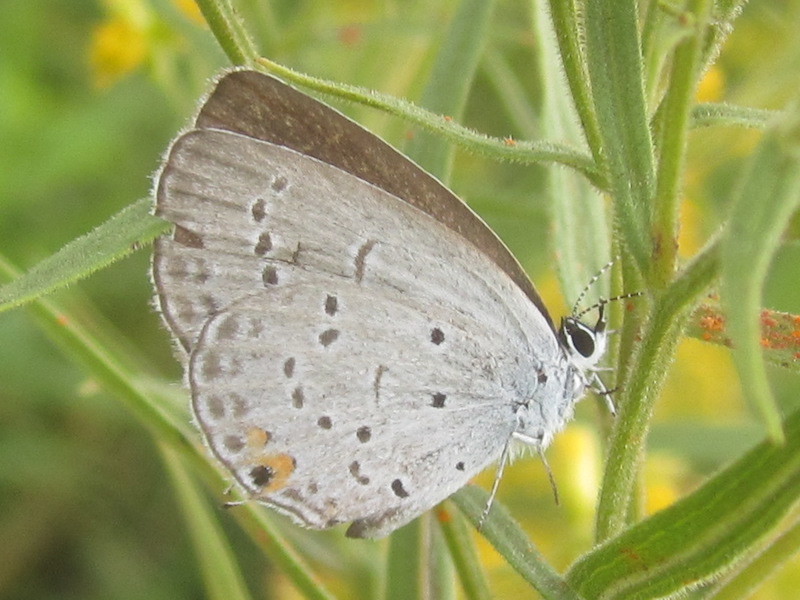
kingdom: Animalia
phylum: Arthropoda
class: Insecta
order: Lepidoptera
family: Lycaenidae
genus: Elkalyce
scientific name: Elkalyce comyntas
